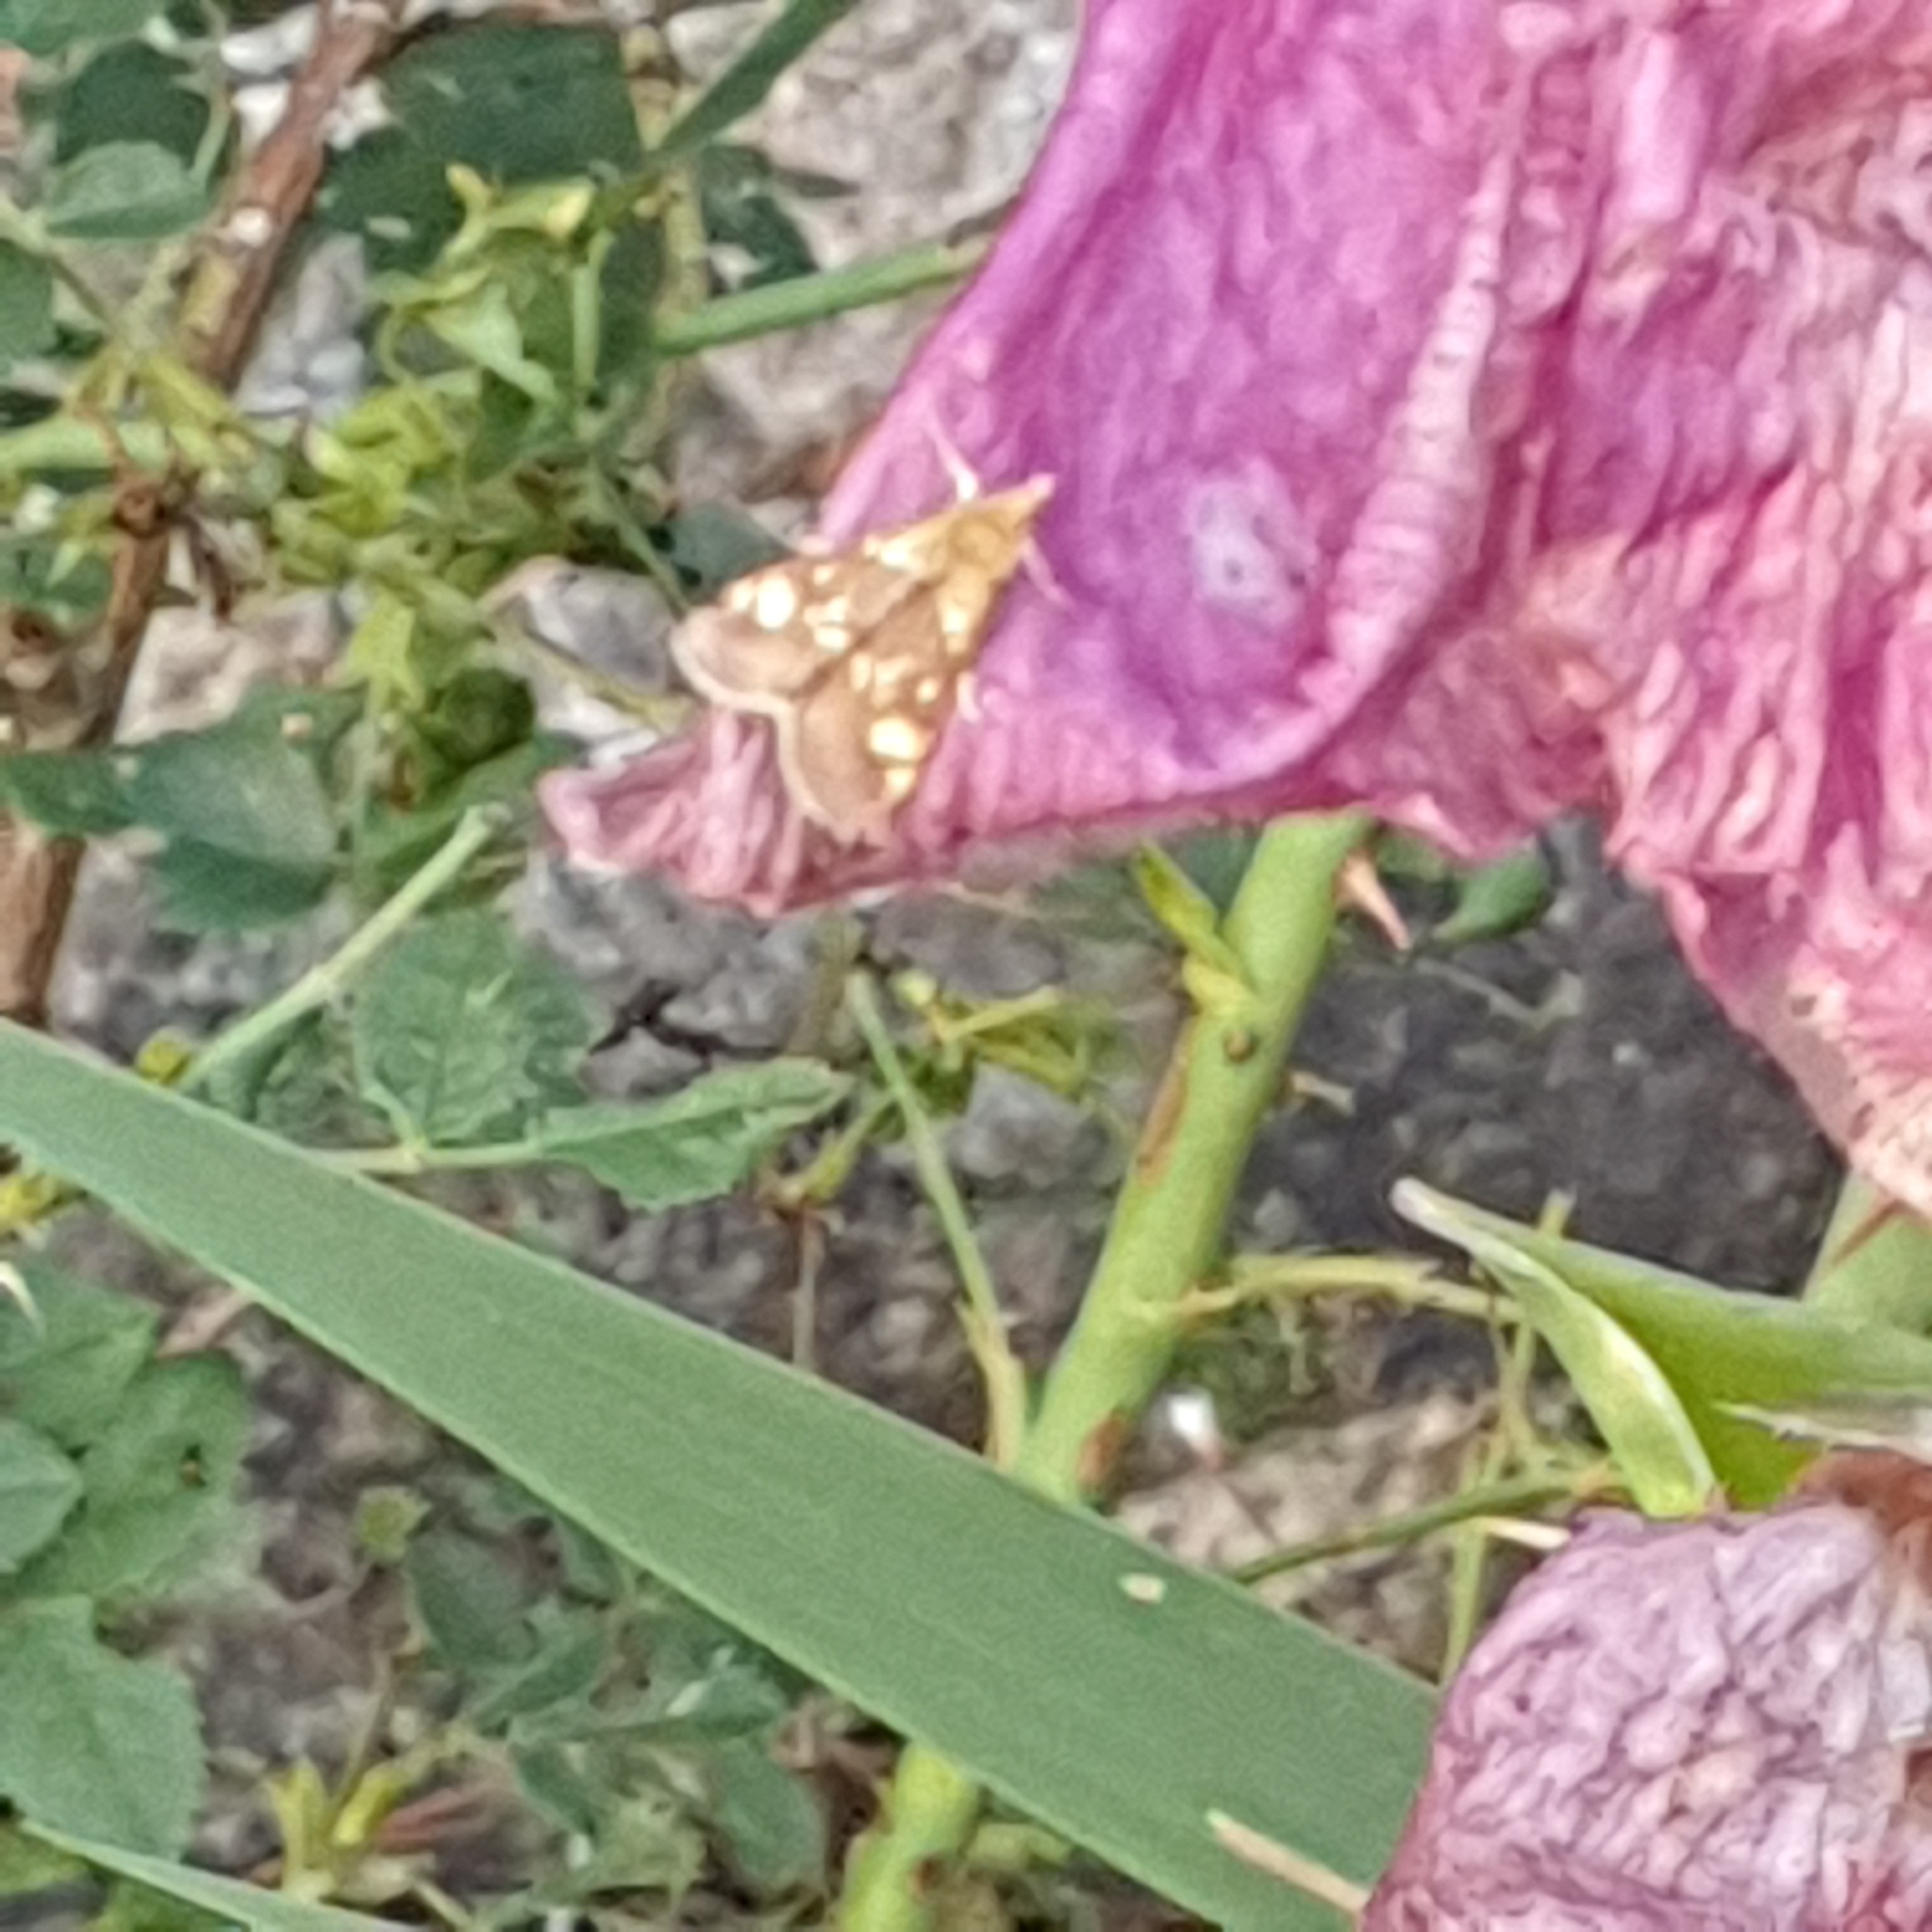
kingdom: Animalia
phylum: Arthropoda
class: Insecta
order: Lepidoptera
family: Crambidae
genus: Pyrausta
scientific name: Pyrausta aurata
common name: Small purple & gold
